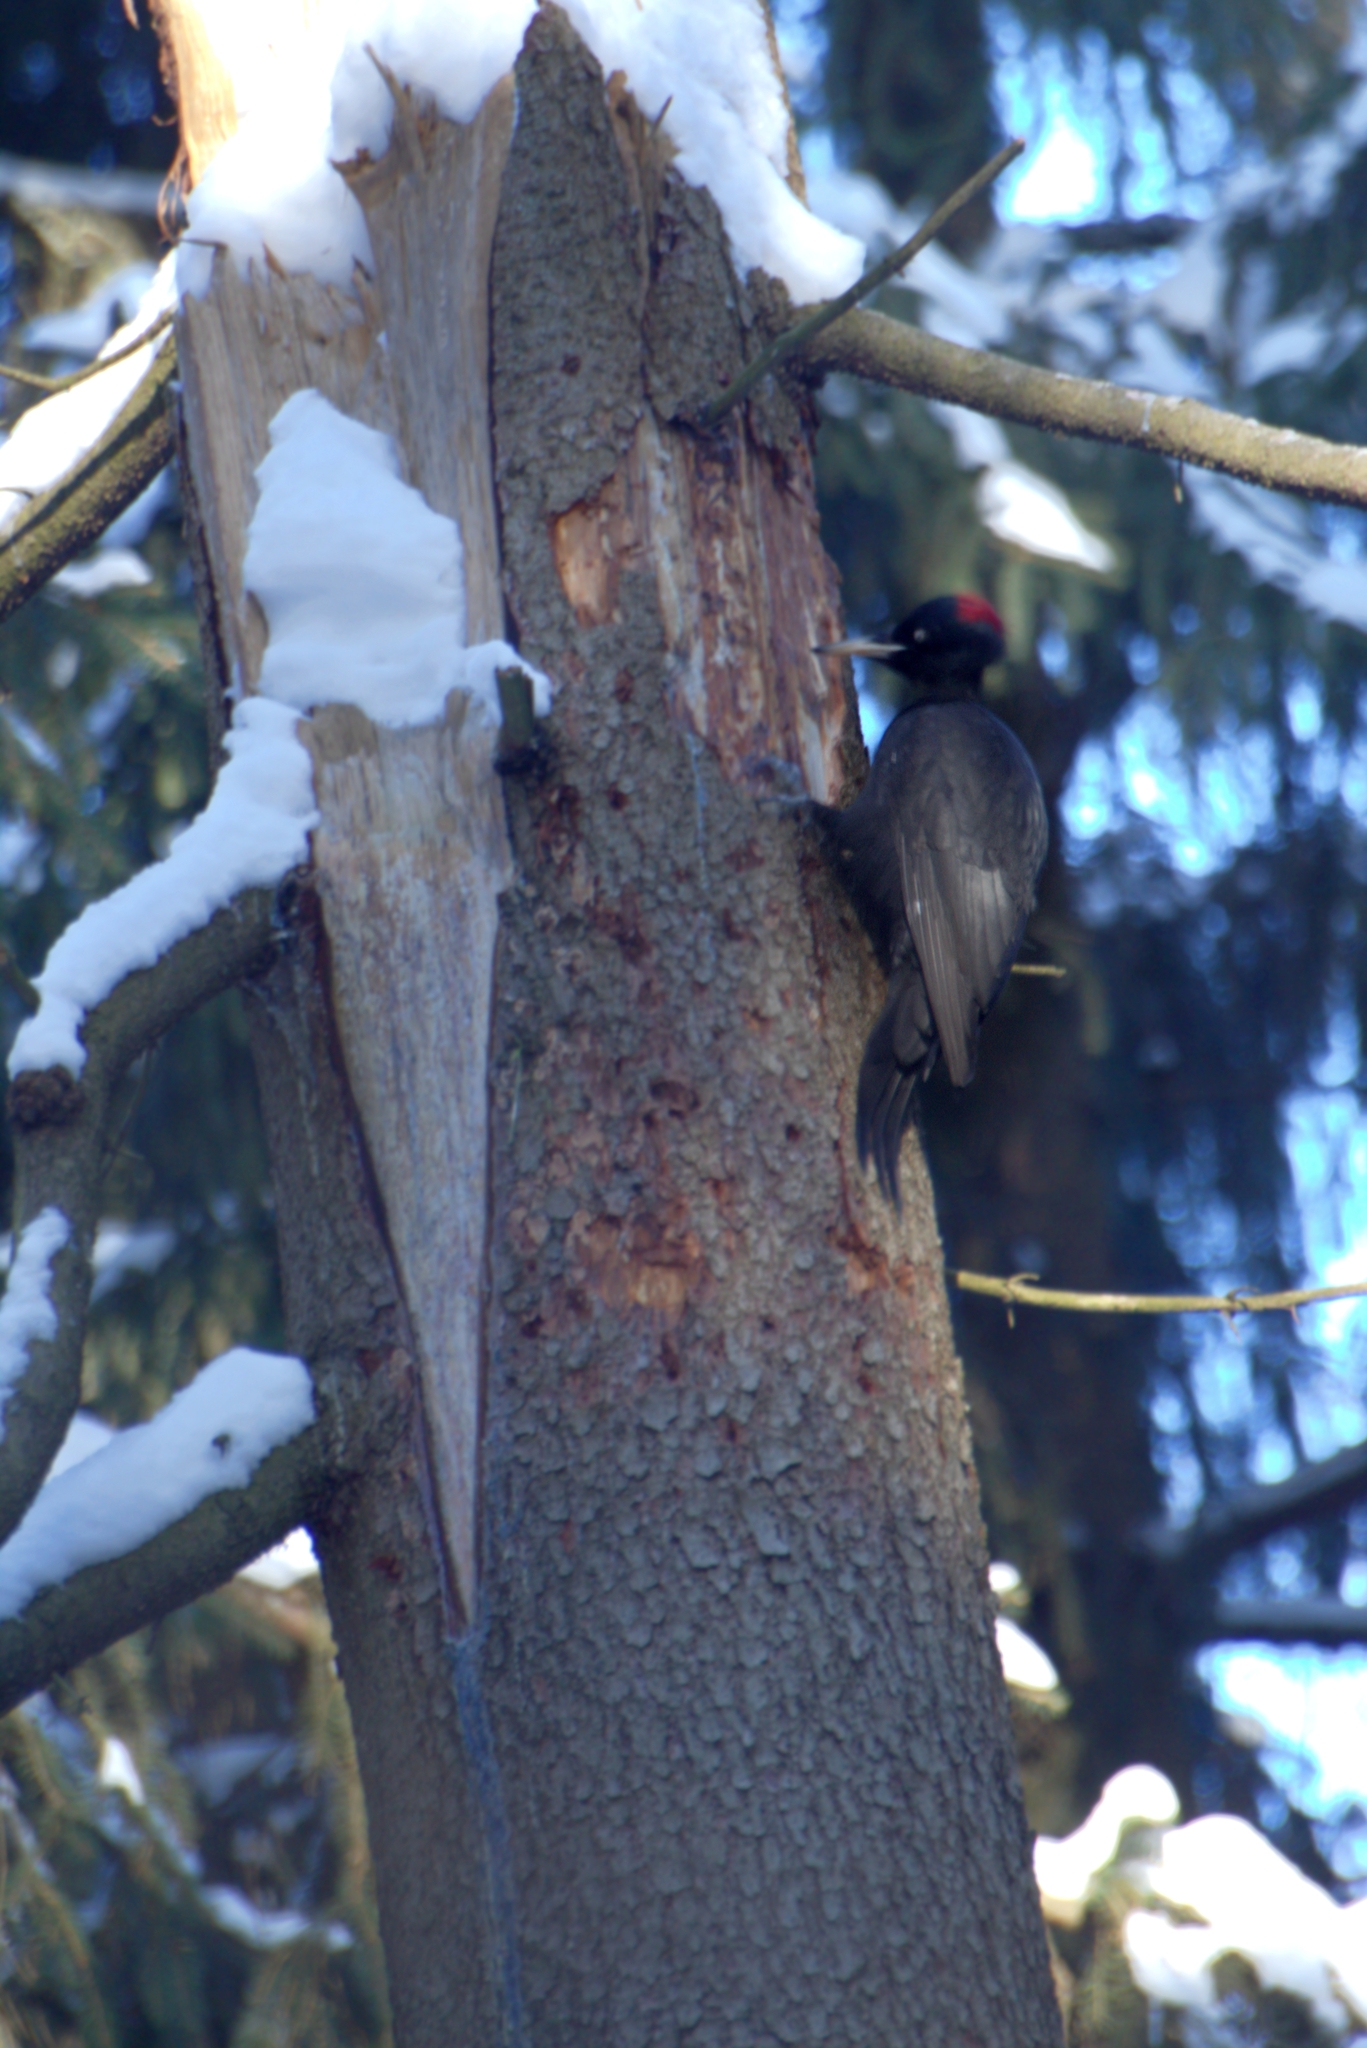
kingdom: Animalia
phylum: Chordata
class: Aves
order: Piciformes
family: Picidae
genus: Dryocopus
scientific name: Dryocopus martius
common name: Black woodpecker
